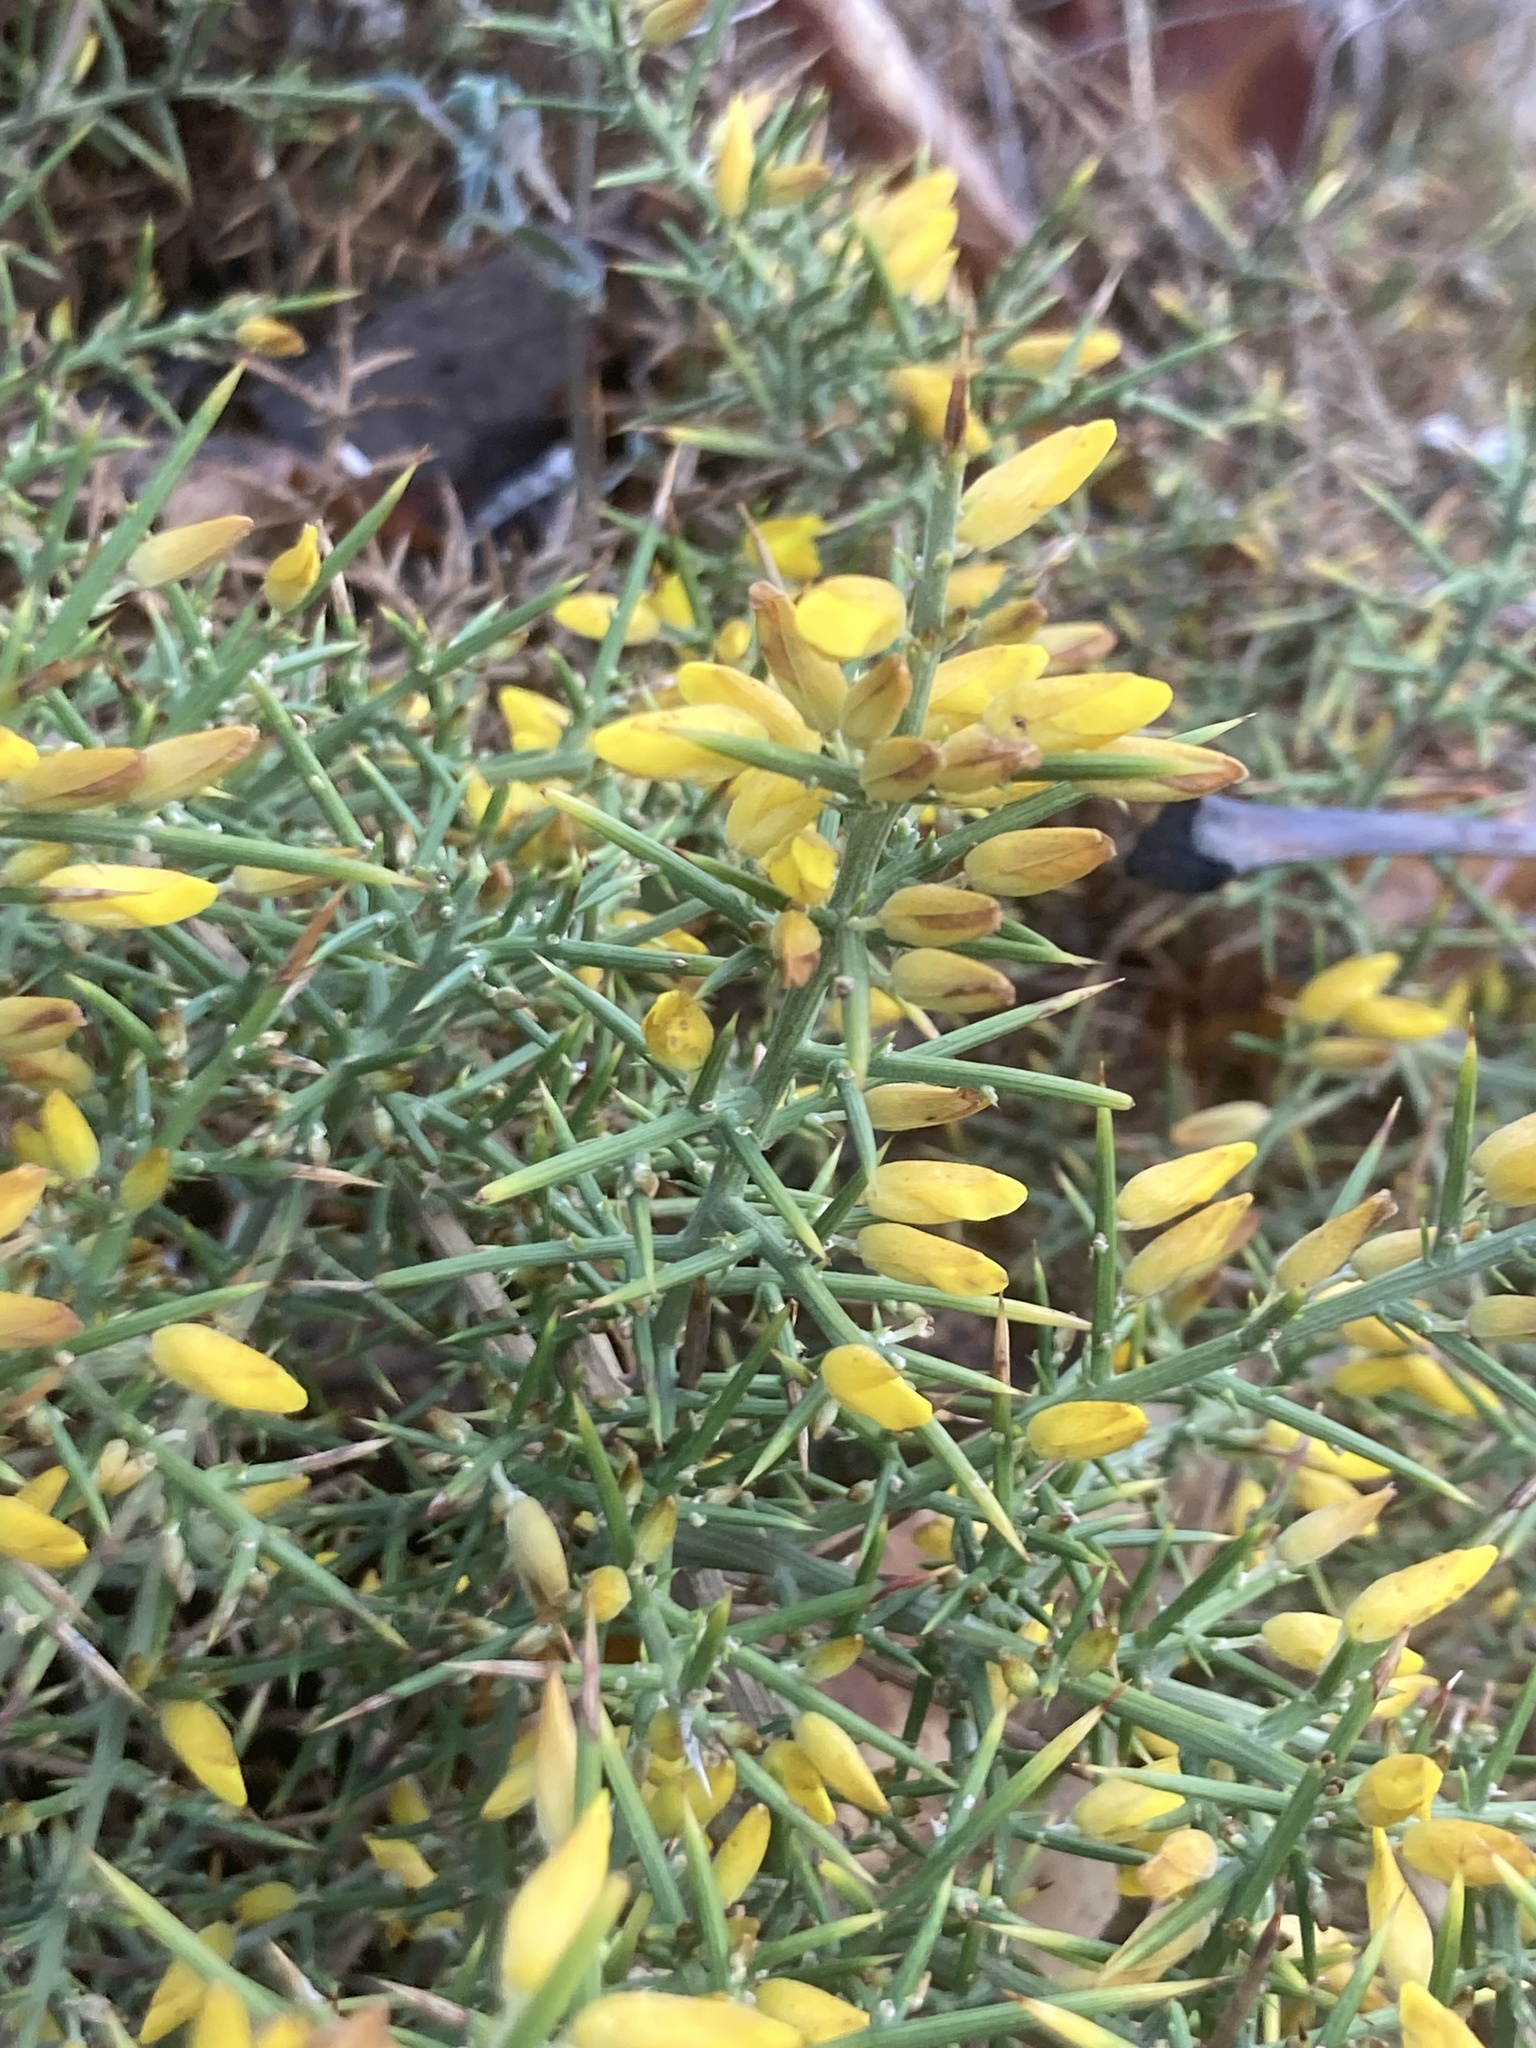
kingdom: Plantae
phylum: Tracheophyta
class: Magnoliopsida
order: Fabales
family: Fabaceae
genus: Ulex
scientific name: Ulex parviflorus
